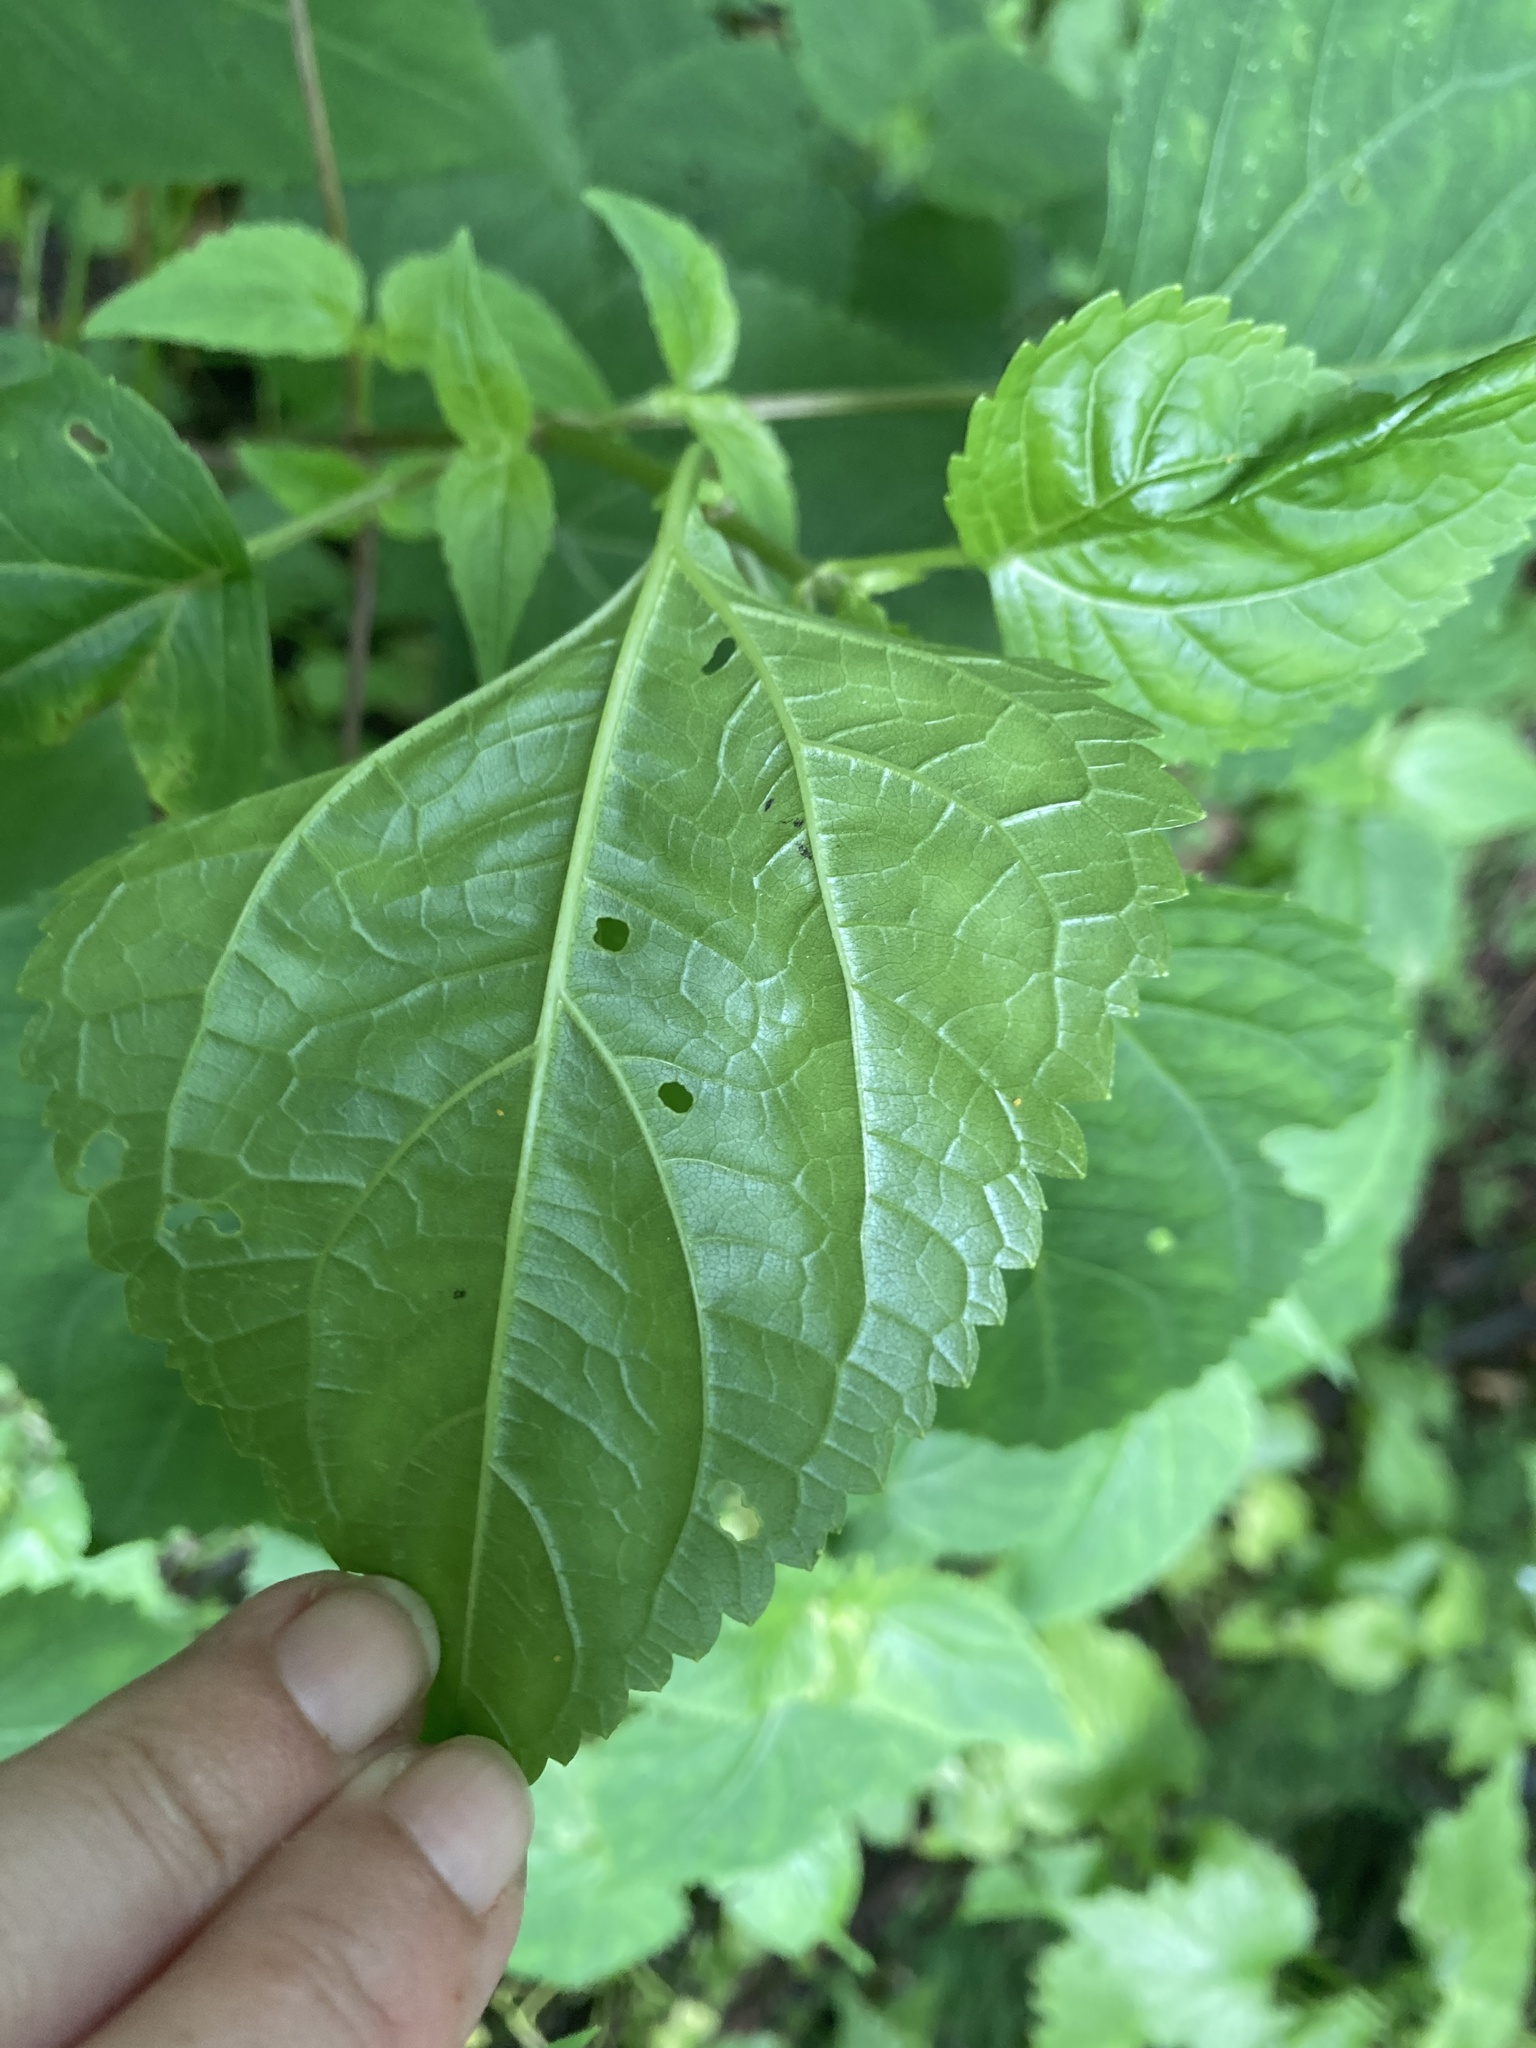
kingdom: Plantae
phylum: Tracheophyta
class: Magnoliopsida
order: Asterales
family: Asteraceae
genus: Ageratina
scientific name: Ageratina altissima
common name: White snakeroot
